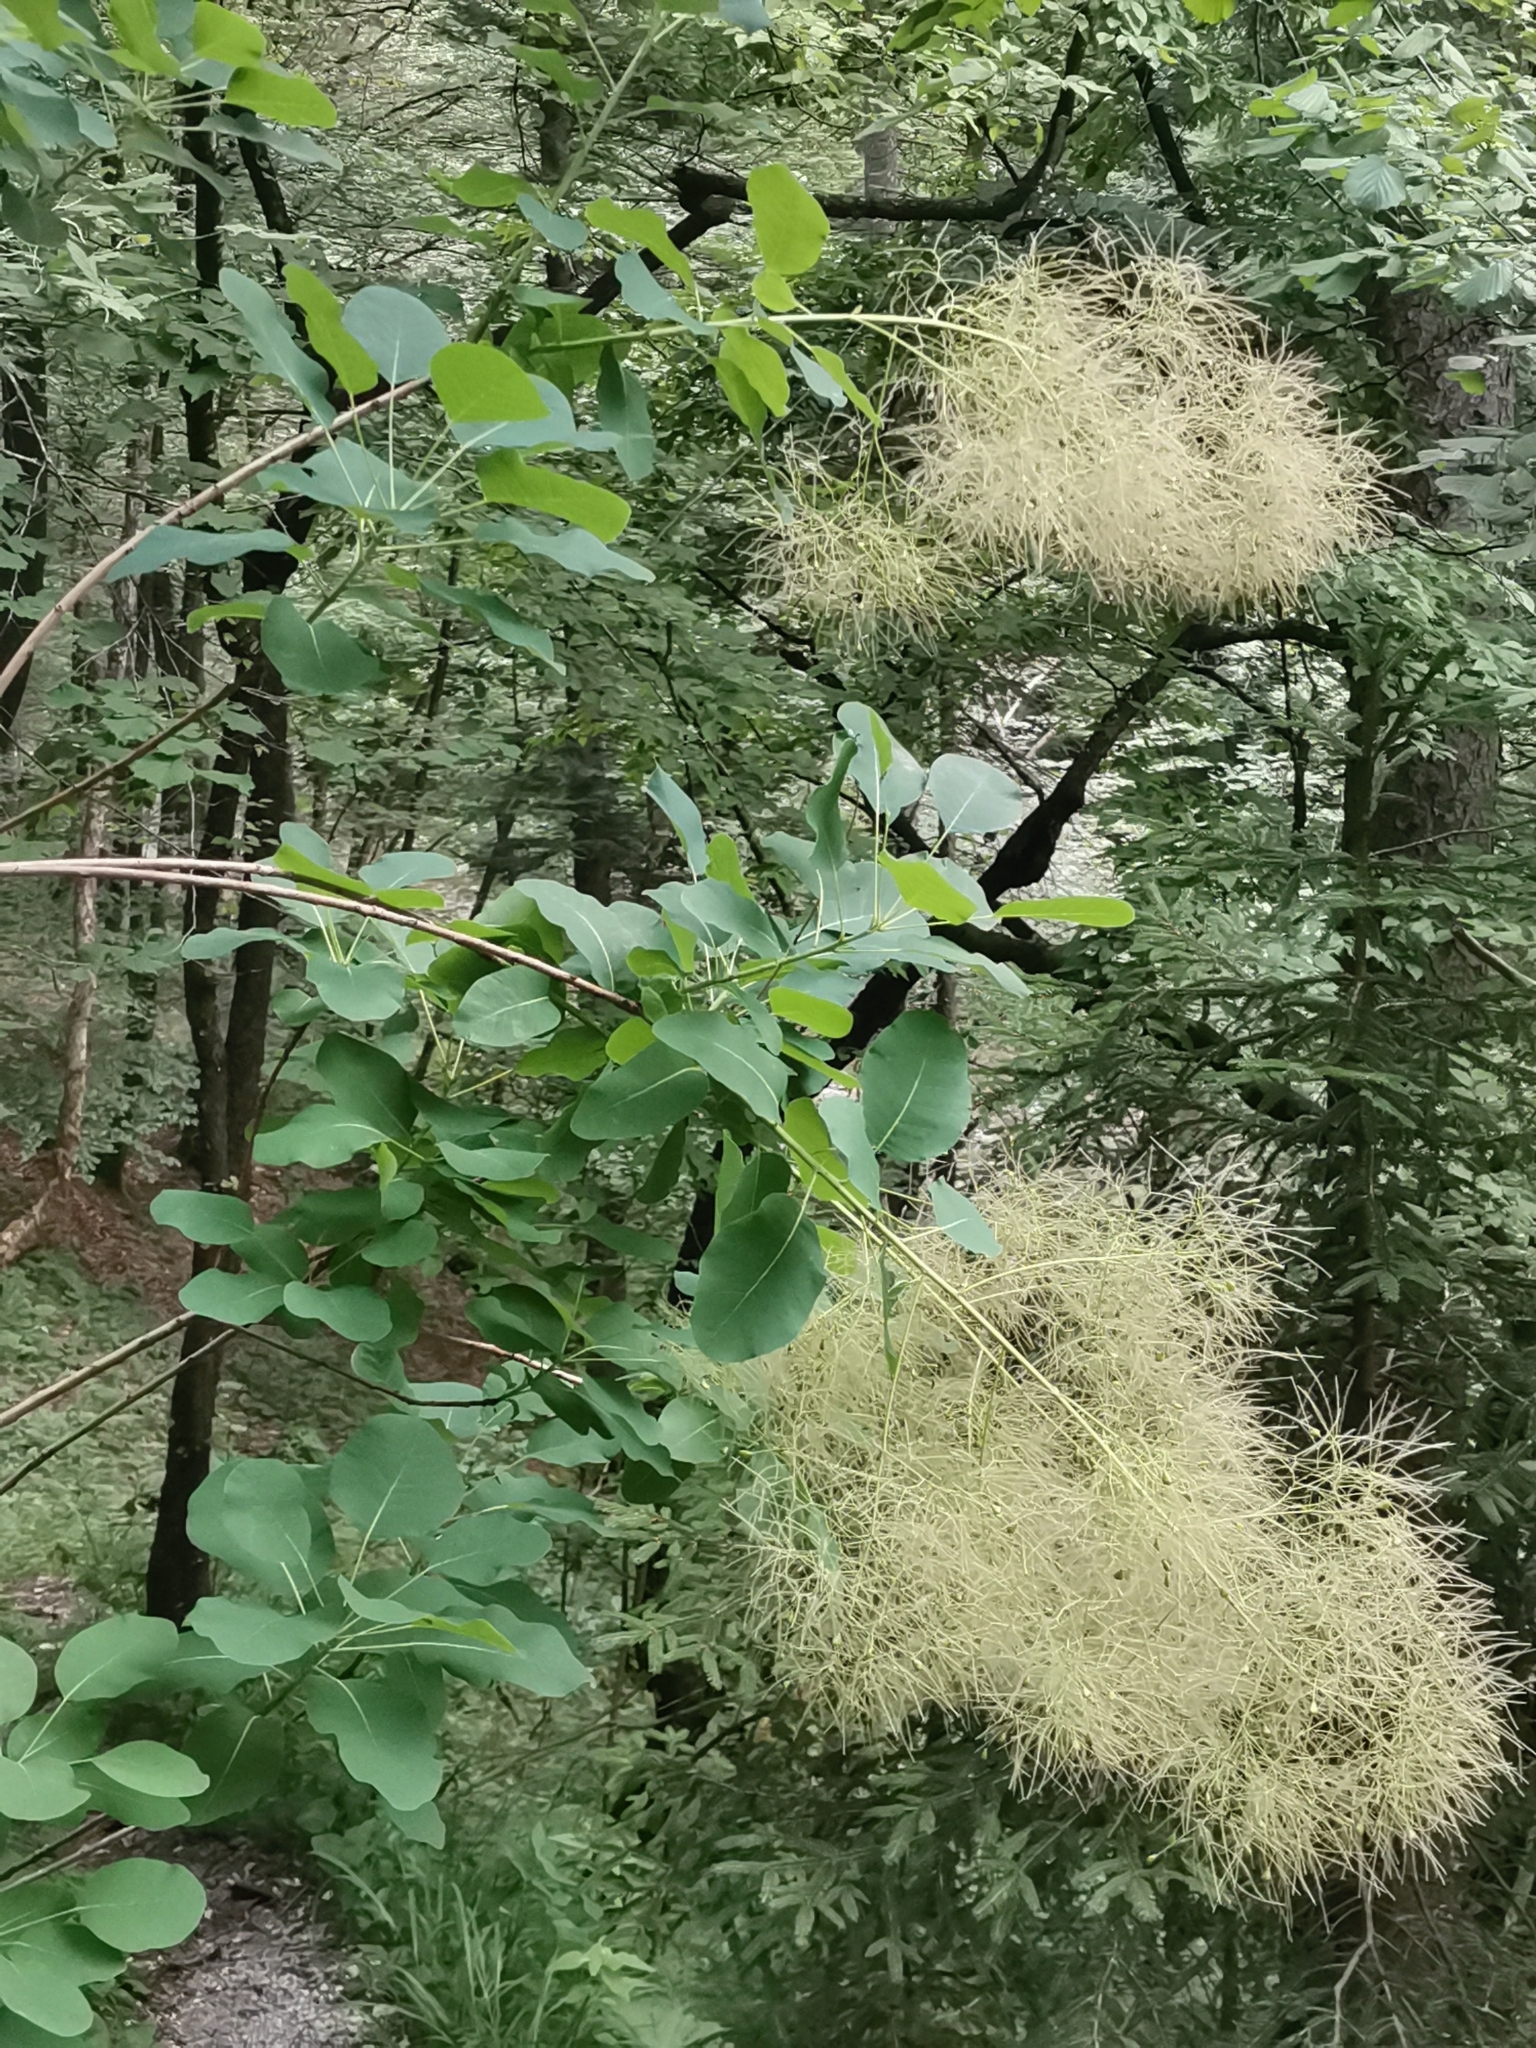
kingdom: Plantae
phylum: Tracheophyta
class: Magnoliopsida
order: Sapindales
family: Anacardiaceae
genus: Cotinus
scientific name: Cotinus coggygria
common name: Smoke-tree
